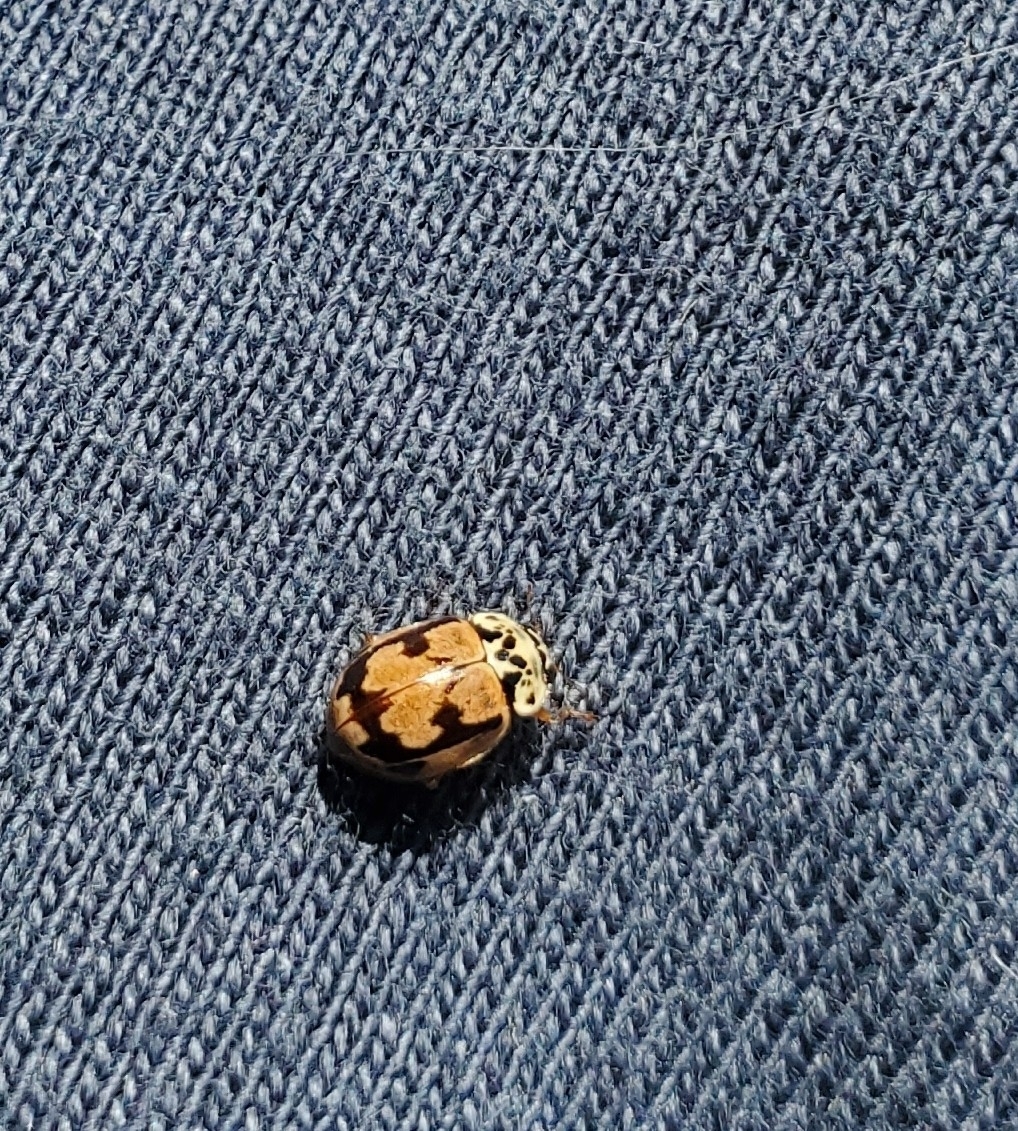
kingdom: Animalia
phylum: Arthropoda
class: Insecta
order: Coleoptera
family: Coccinellidae
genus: Mulsantina
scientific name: Mulsantina picta
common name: Painted ladybird
